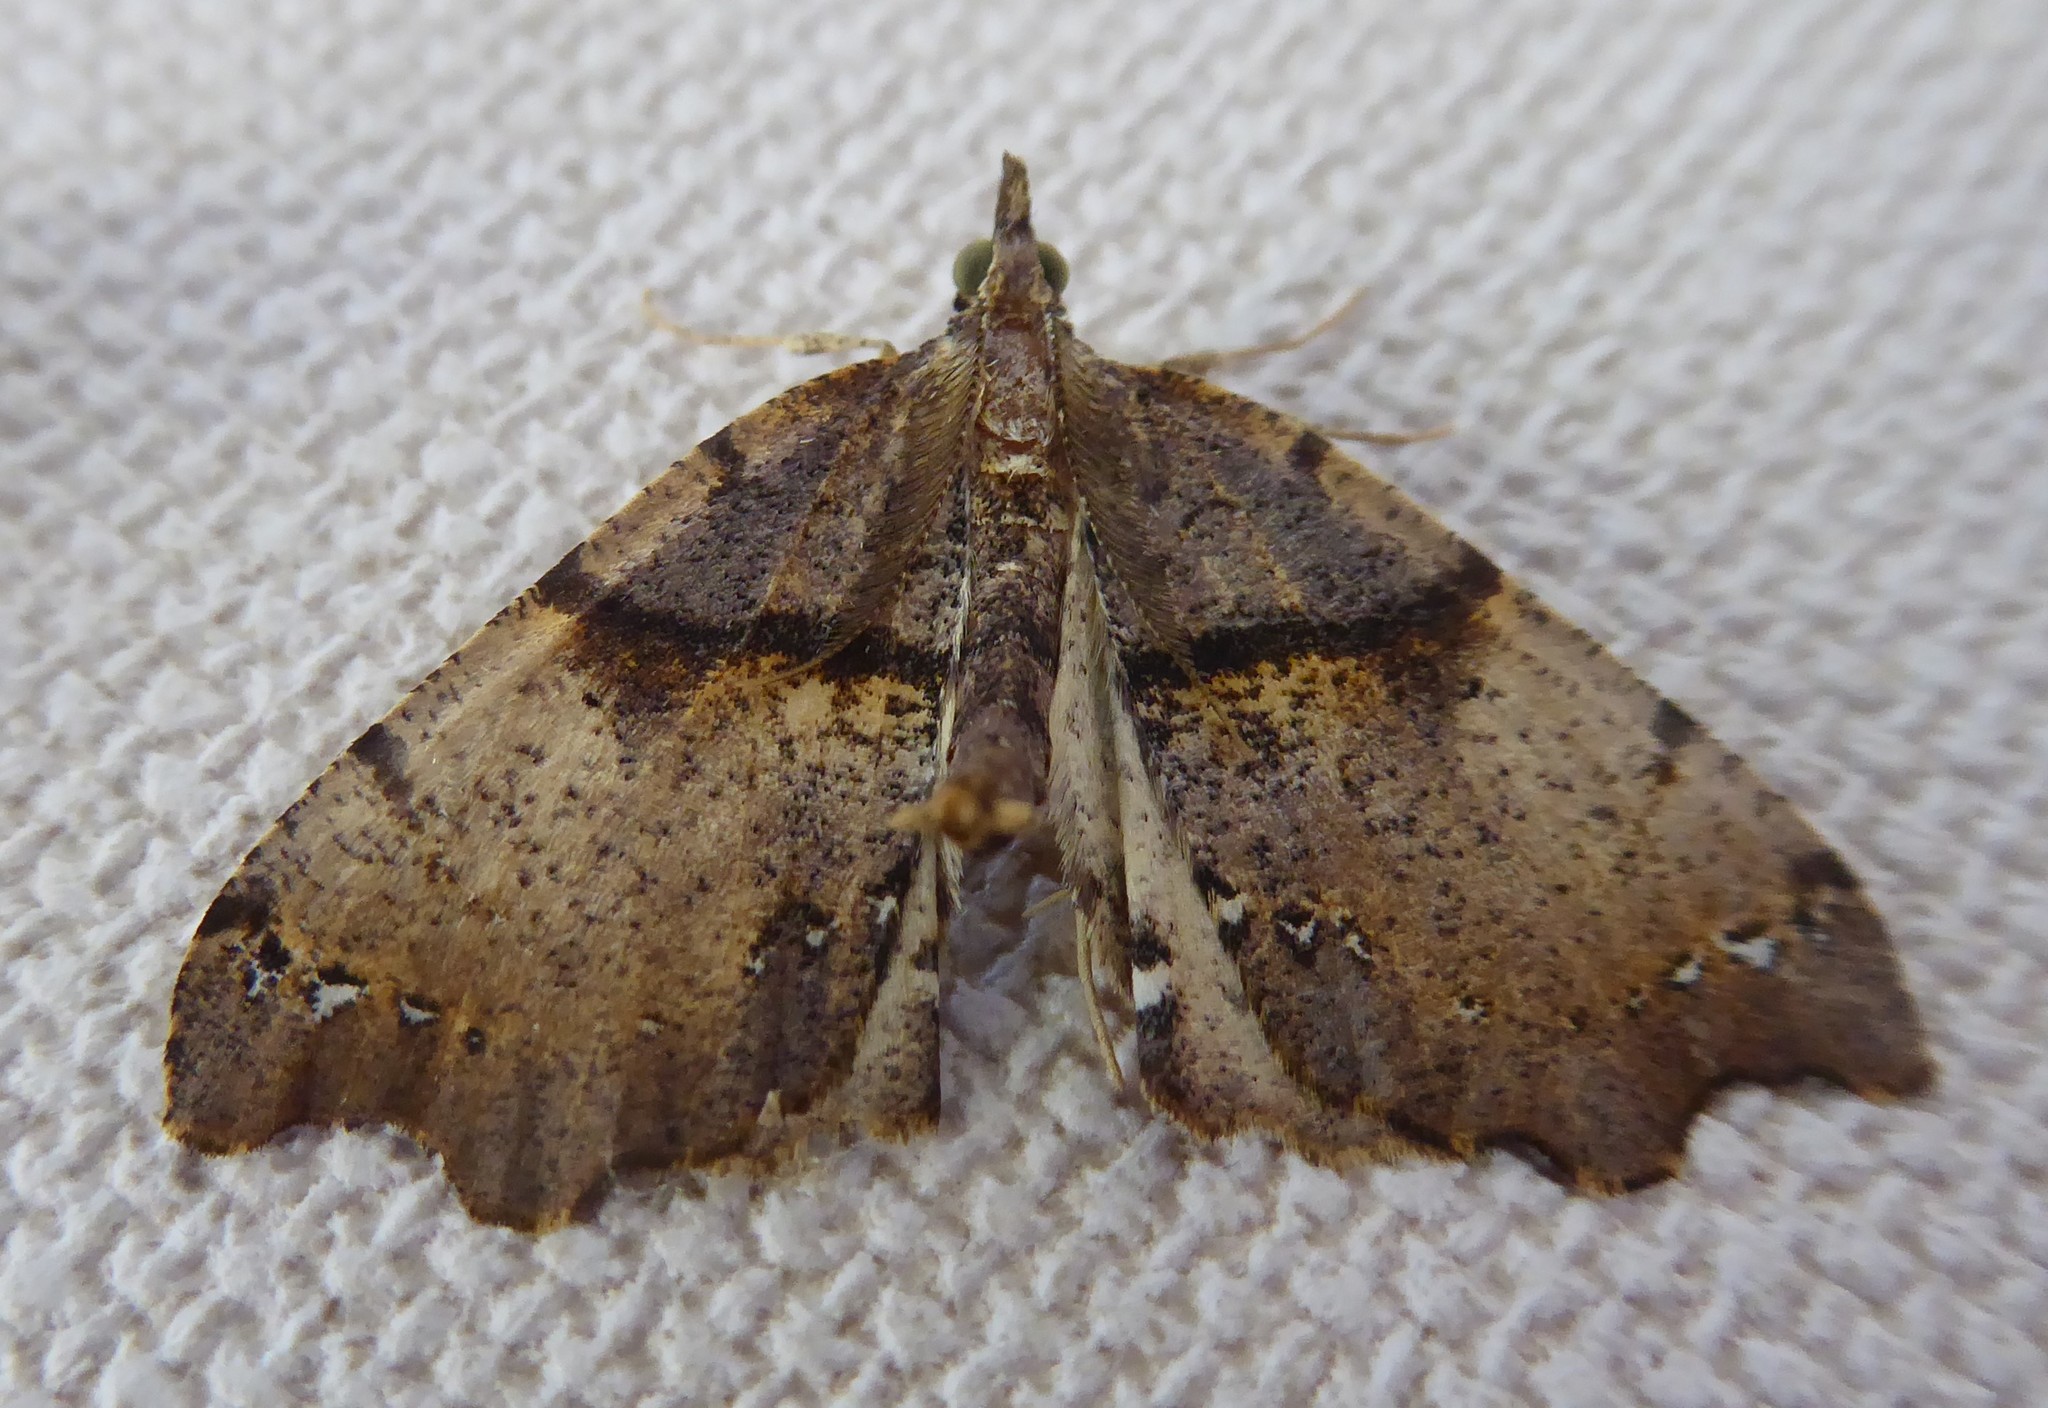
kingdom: Animalia
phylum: Arthropoda
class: Insecta
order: Lepidoptera
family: Geometridae
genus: Chalastra
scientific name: Chalastra pellurgata
